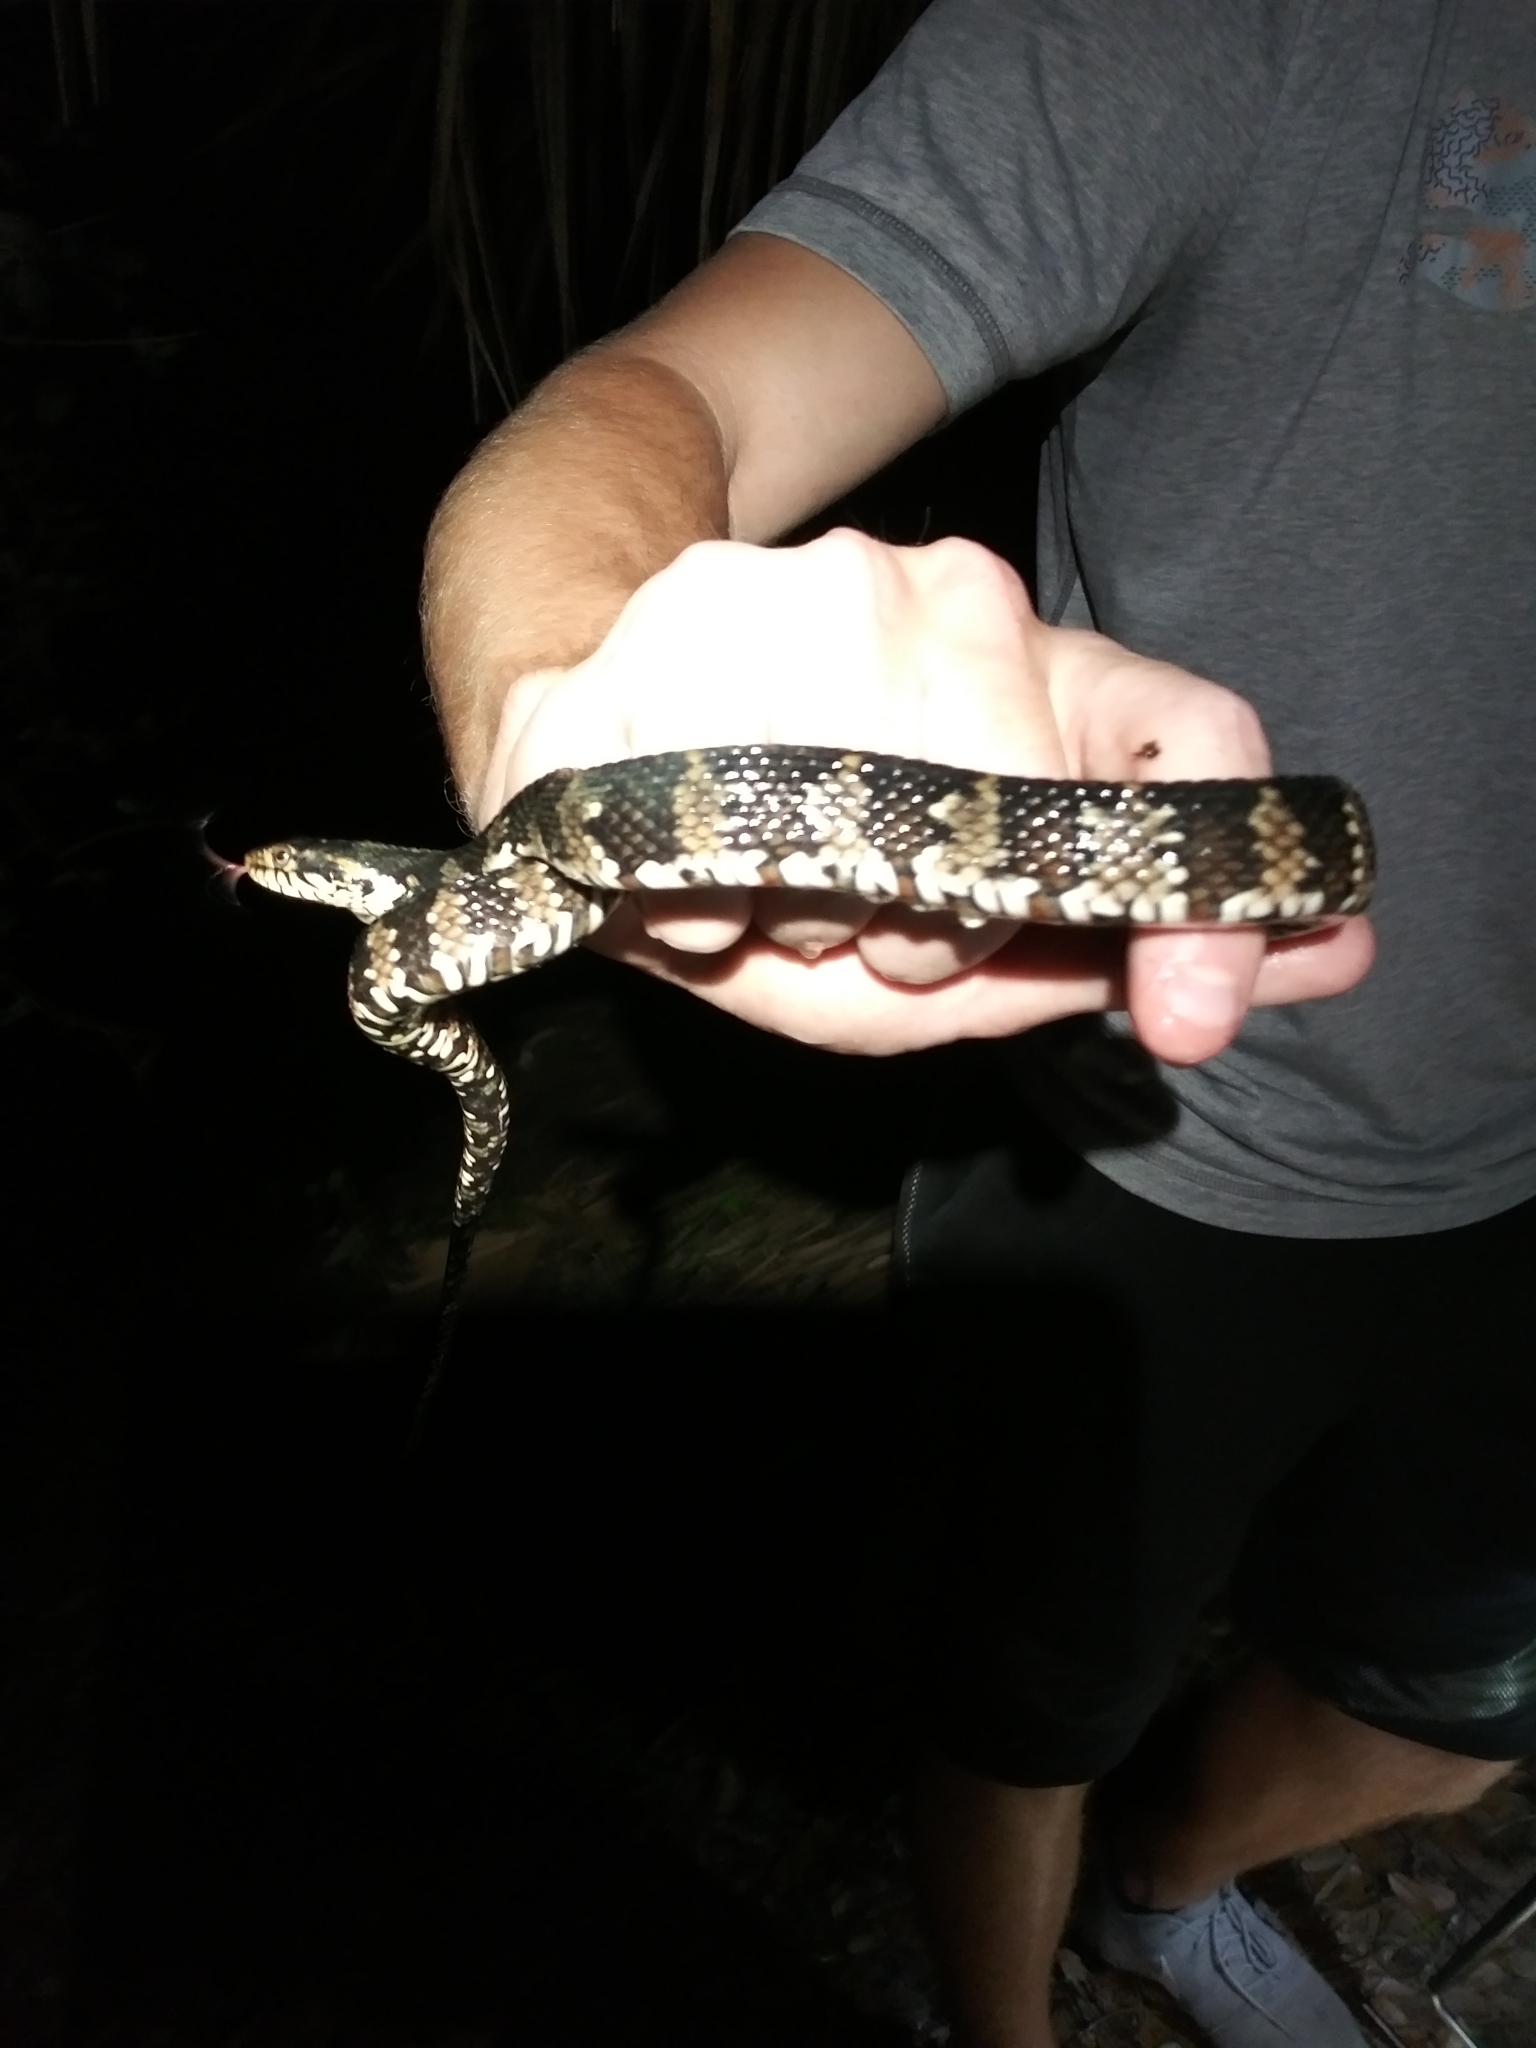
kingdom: Animalia
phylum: Chordata
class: Squamata
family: Colubridae
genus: Nerodia
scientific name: Nerodia fasciata
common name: Southern water snake
